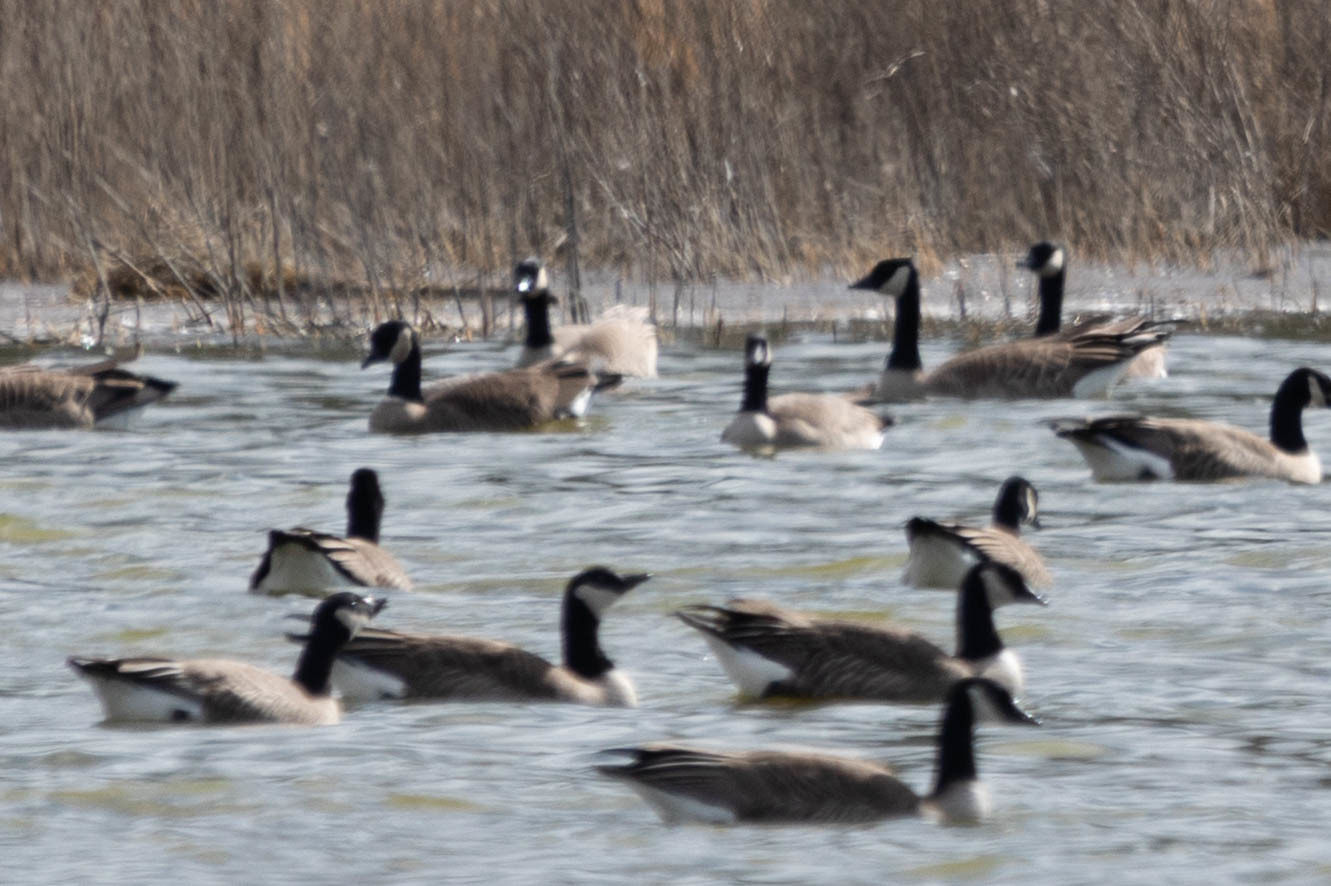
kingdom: Animalia
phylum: Chordata
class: Aves
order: Anseriformes
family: Anatidae
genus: Branta
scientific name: Branta hutchinsii
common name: Cackling goose
